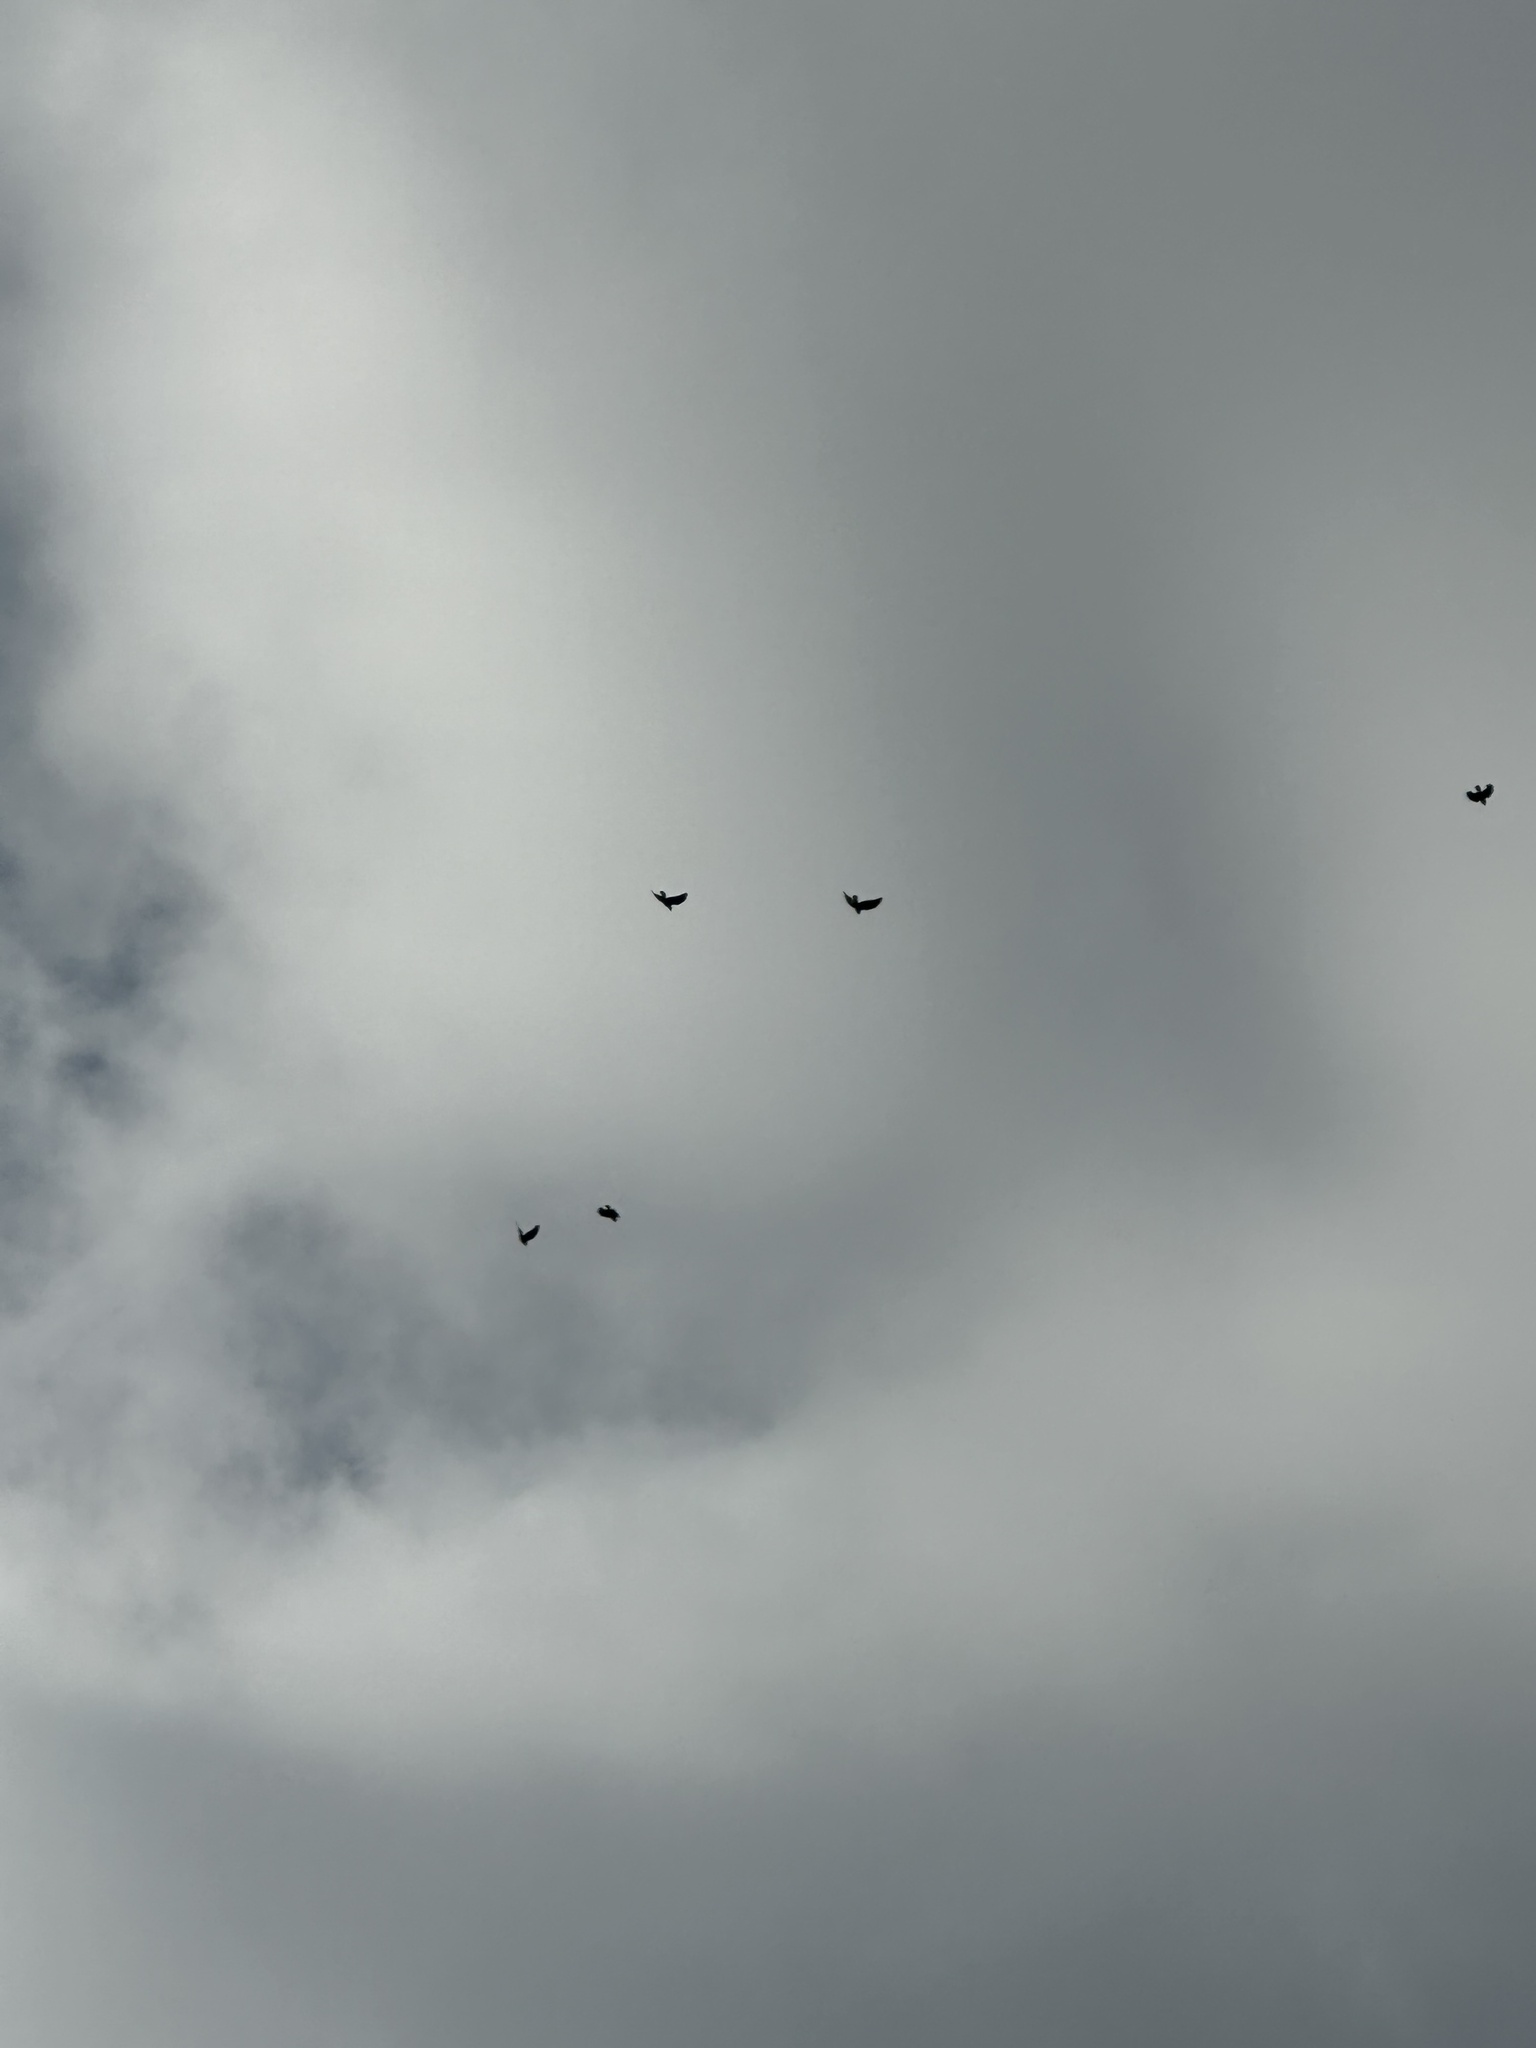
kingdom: Animalia
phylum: Chordata
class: Aves
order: Passeriformes
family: Corvidae
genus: Corvus
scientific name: Corvus brachyrhynchos
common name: American crow
